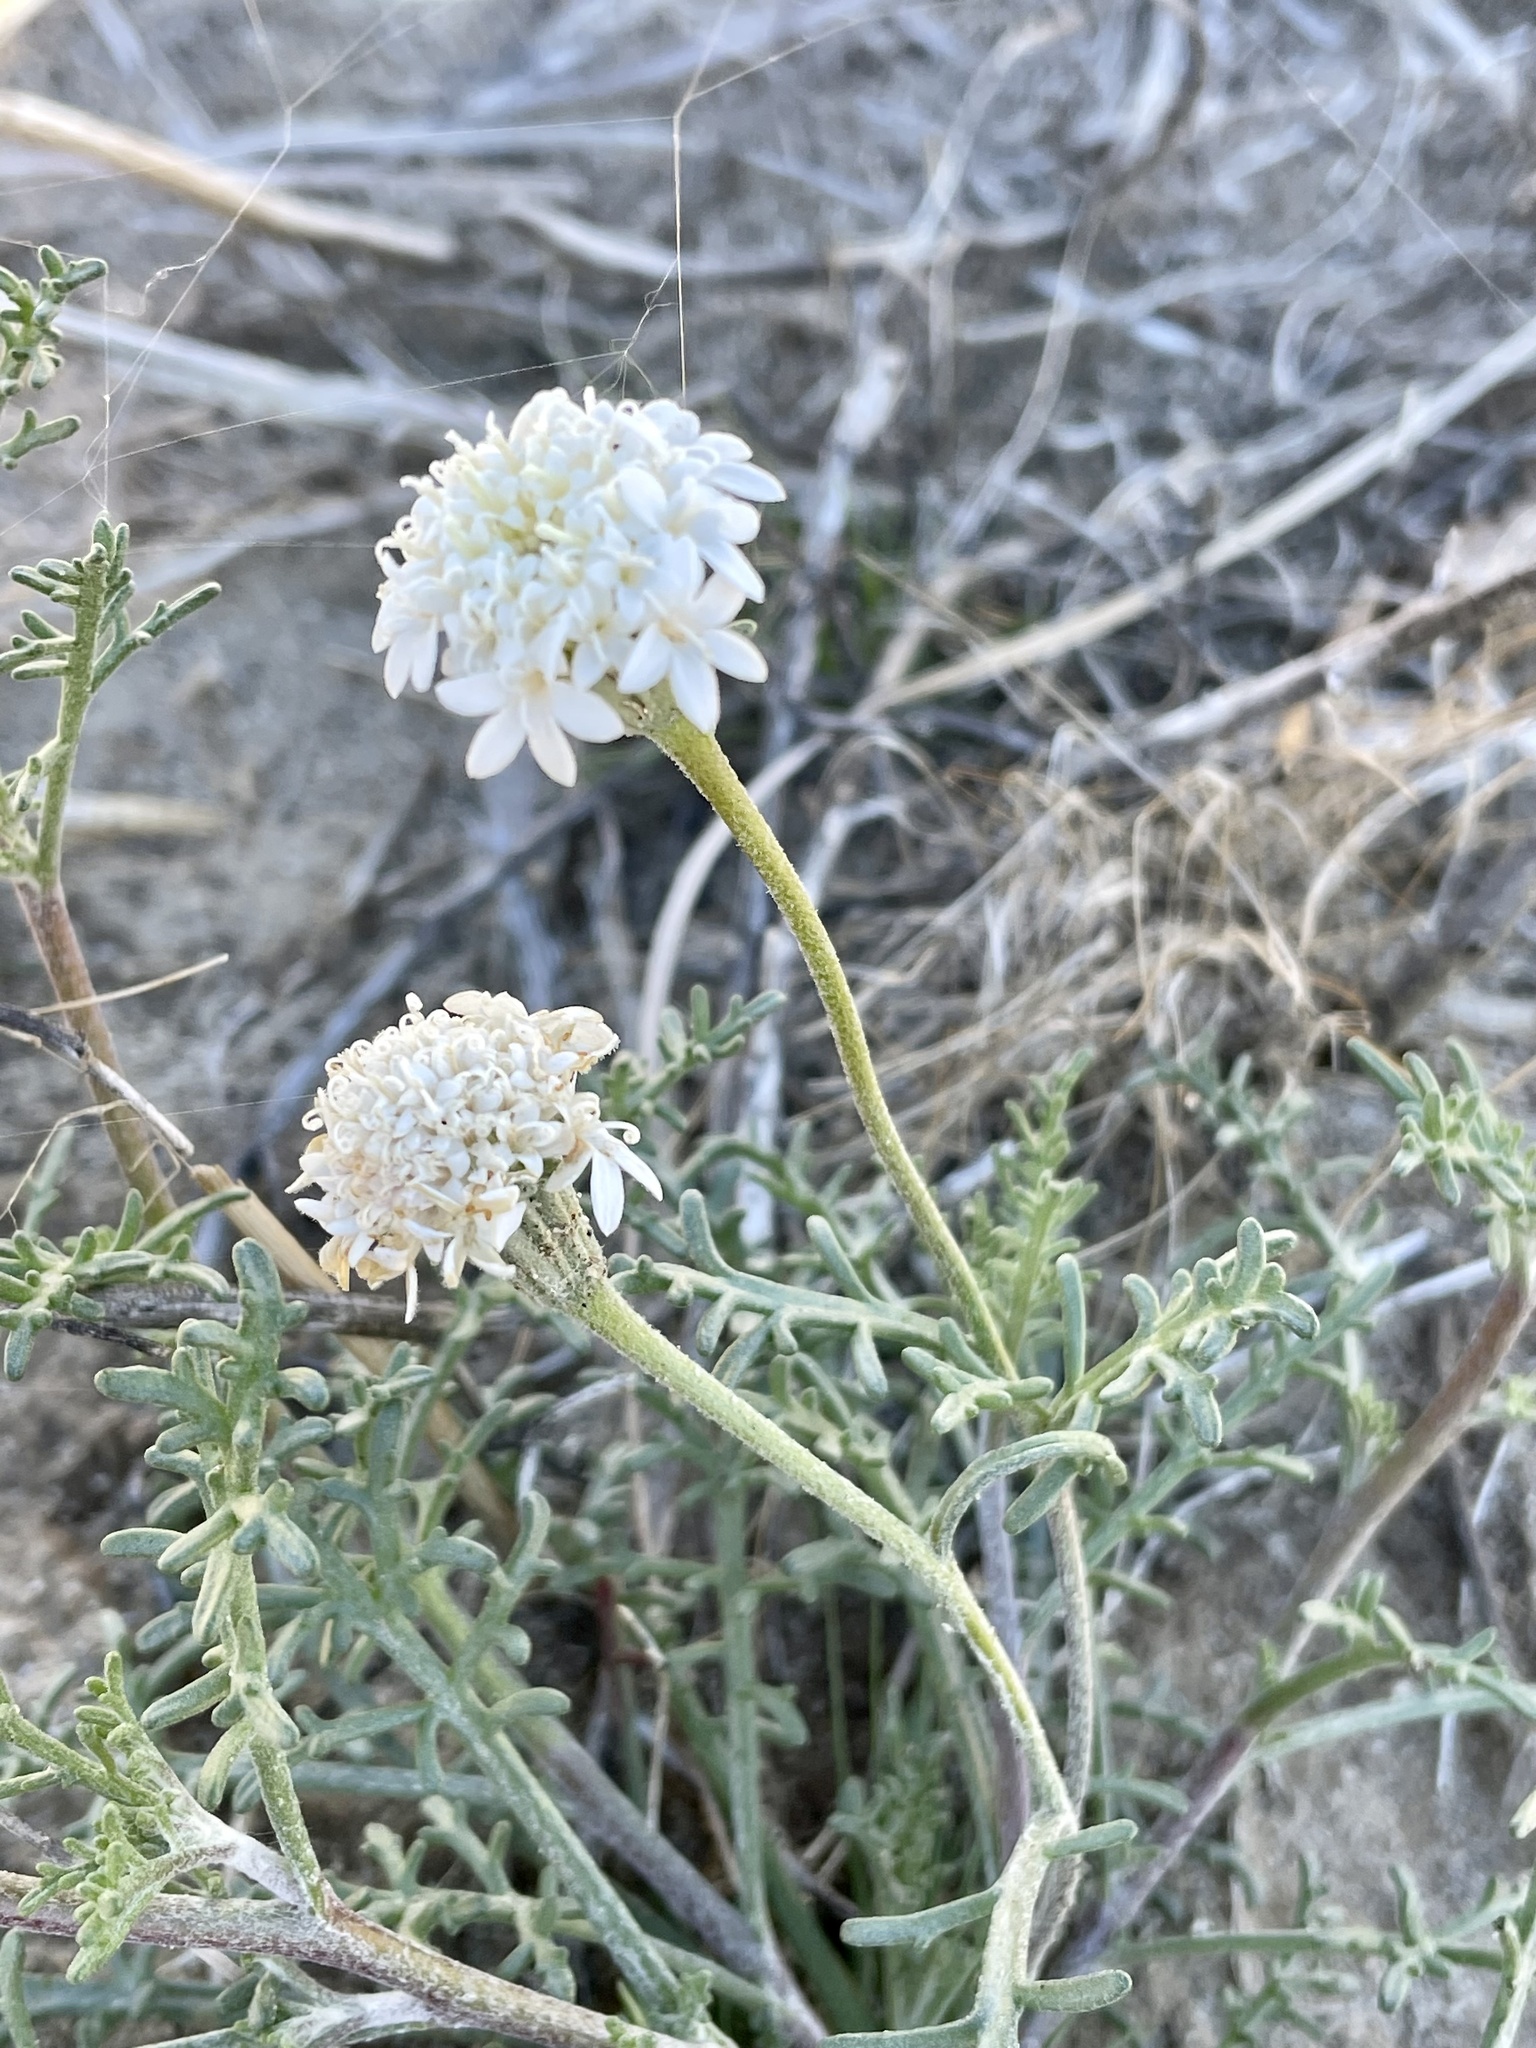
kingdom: Plantae
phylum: Tracheophyta
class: Magnoliopsida
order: Asterales
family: Asteraceae
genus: Chaenactis
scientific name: Chaenactis stevioides
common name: Desert pincushion
